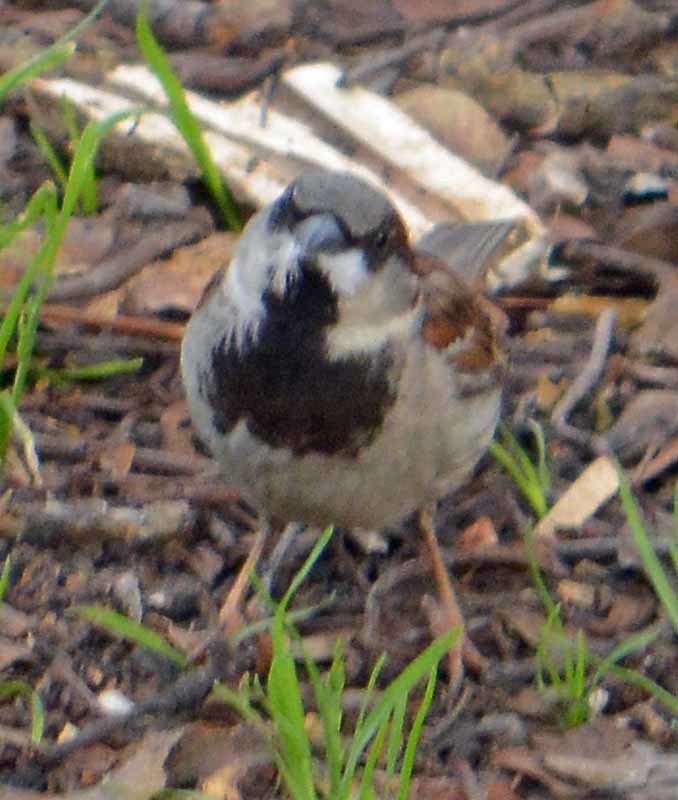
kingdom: Animalia
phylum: Chordata
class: Aves
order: Passeriformes
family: Passeridae
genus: Passer
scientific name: Passer domesticus
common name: House sparrow
